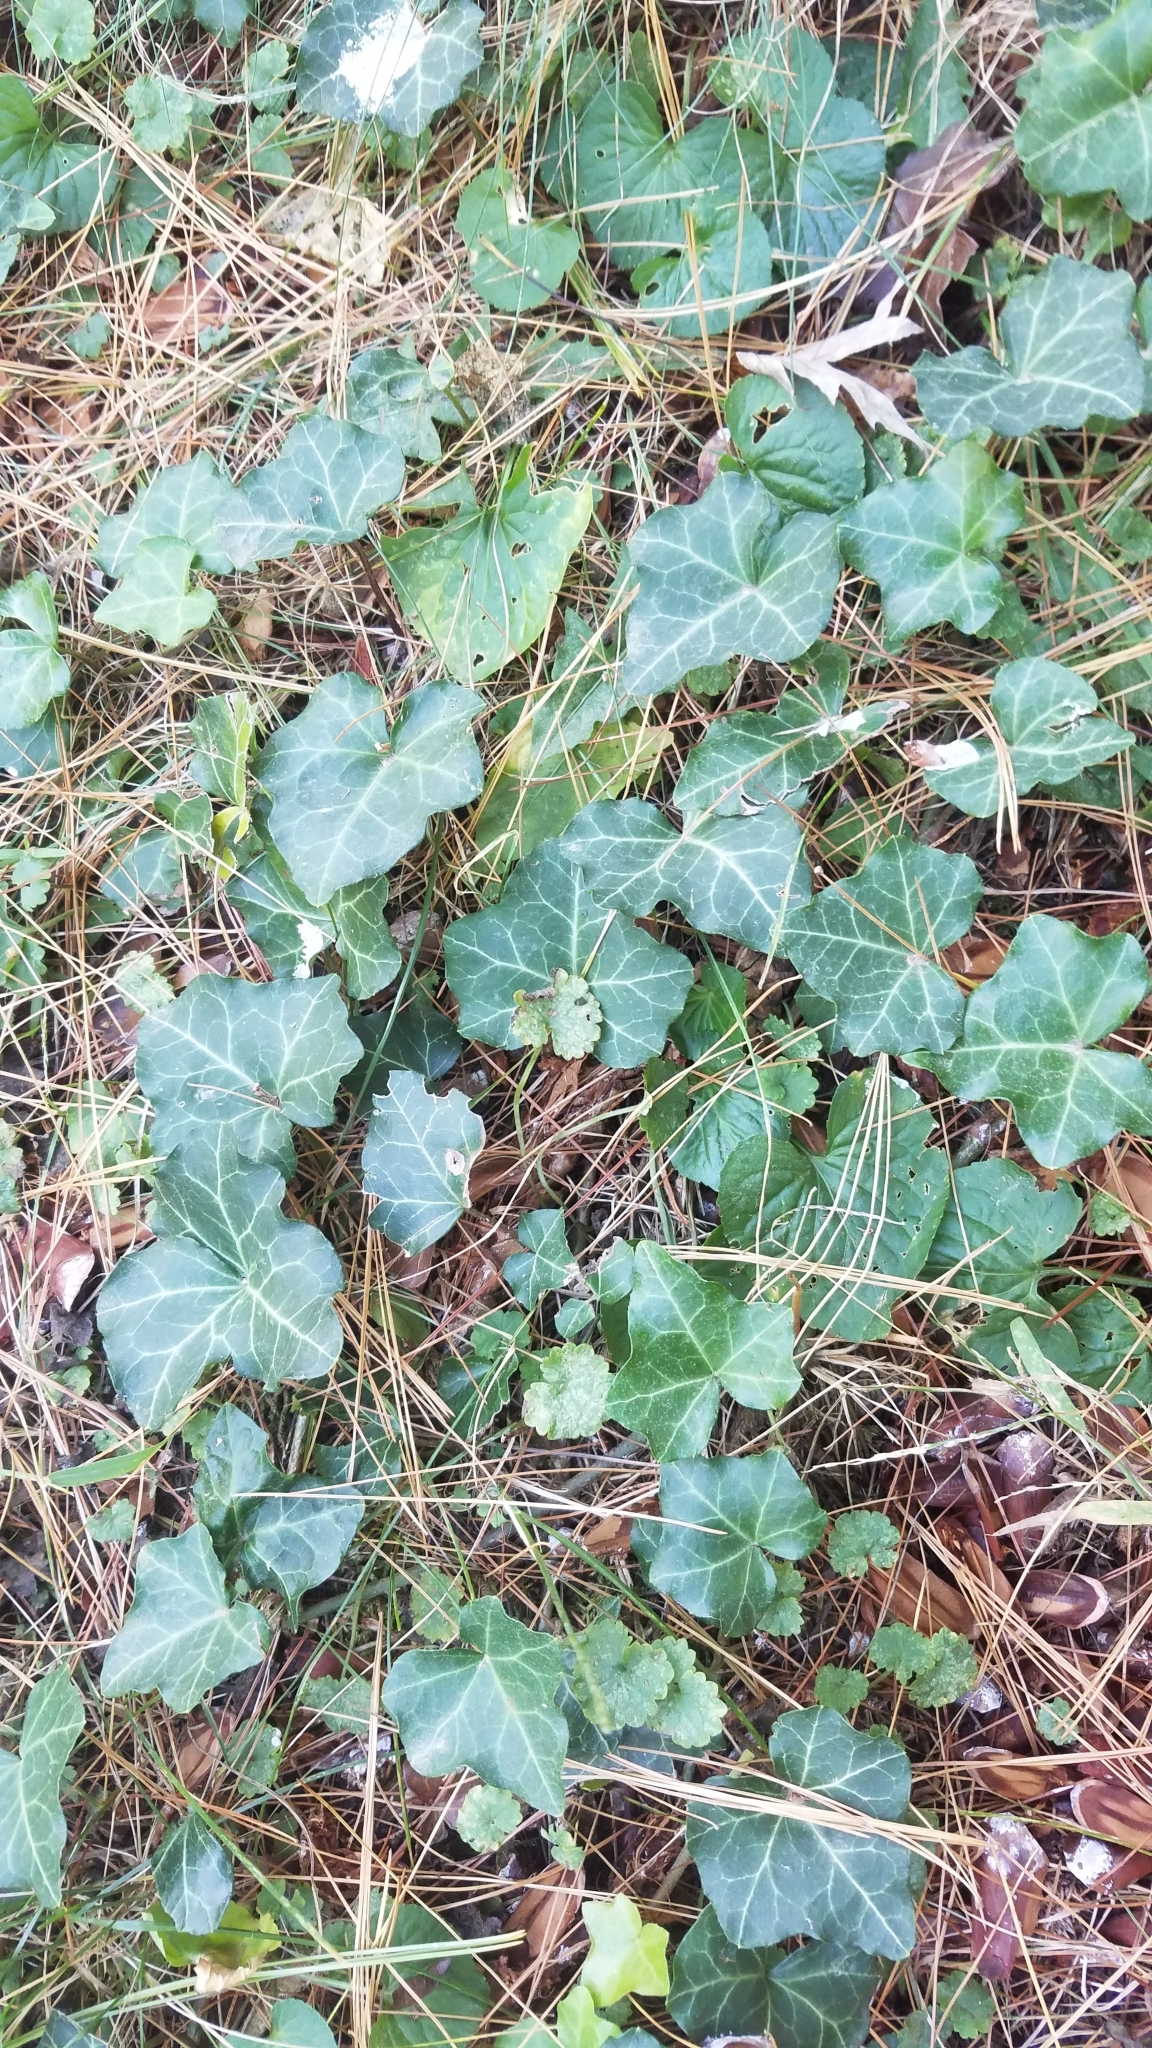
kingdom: Plantae
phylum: Tracheophyta
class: Magnoliopsida
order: Apiales
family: Araliaceae
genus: Hedera
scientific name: Hedera helix
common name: Ivy
